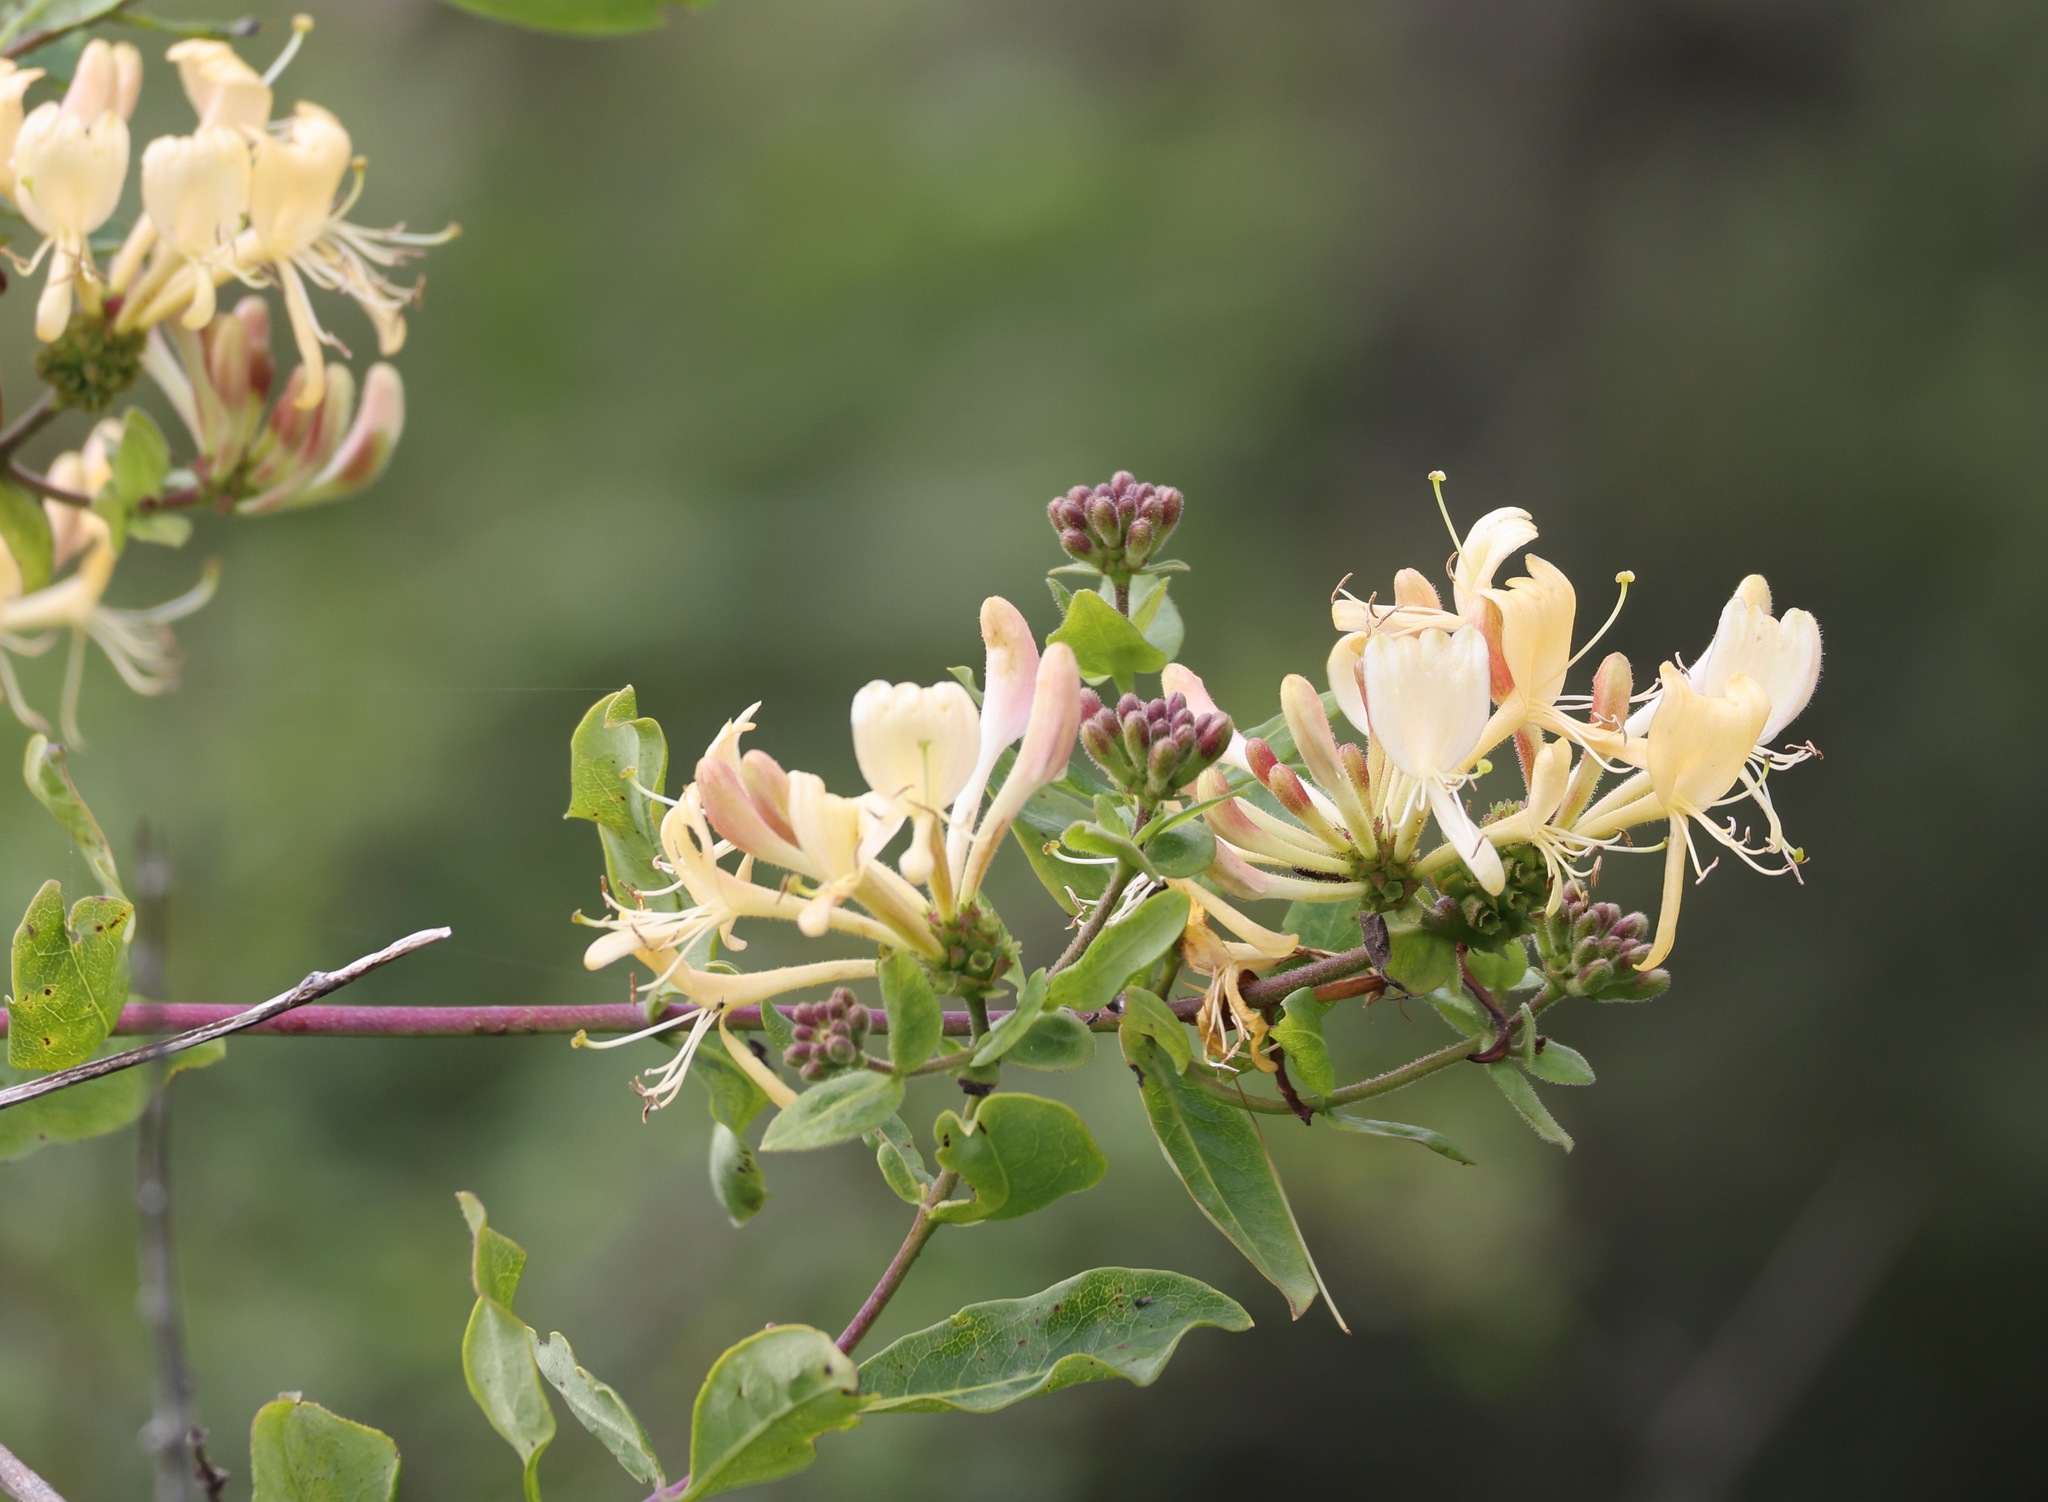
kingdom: Plantae
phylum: Tracheophyta
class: Magnoliopsida
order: Dipsacales
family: Caprifoliaceae
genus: Lonicera
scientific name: Lonicera periclymenum
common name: European honeysuckle
